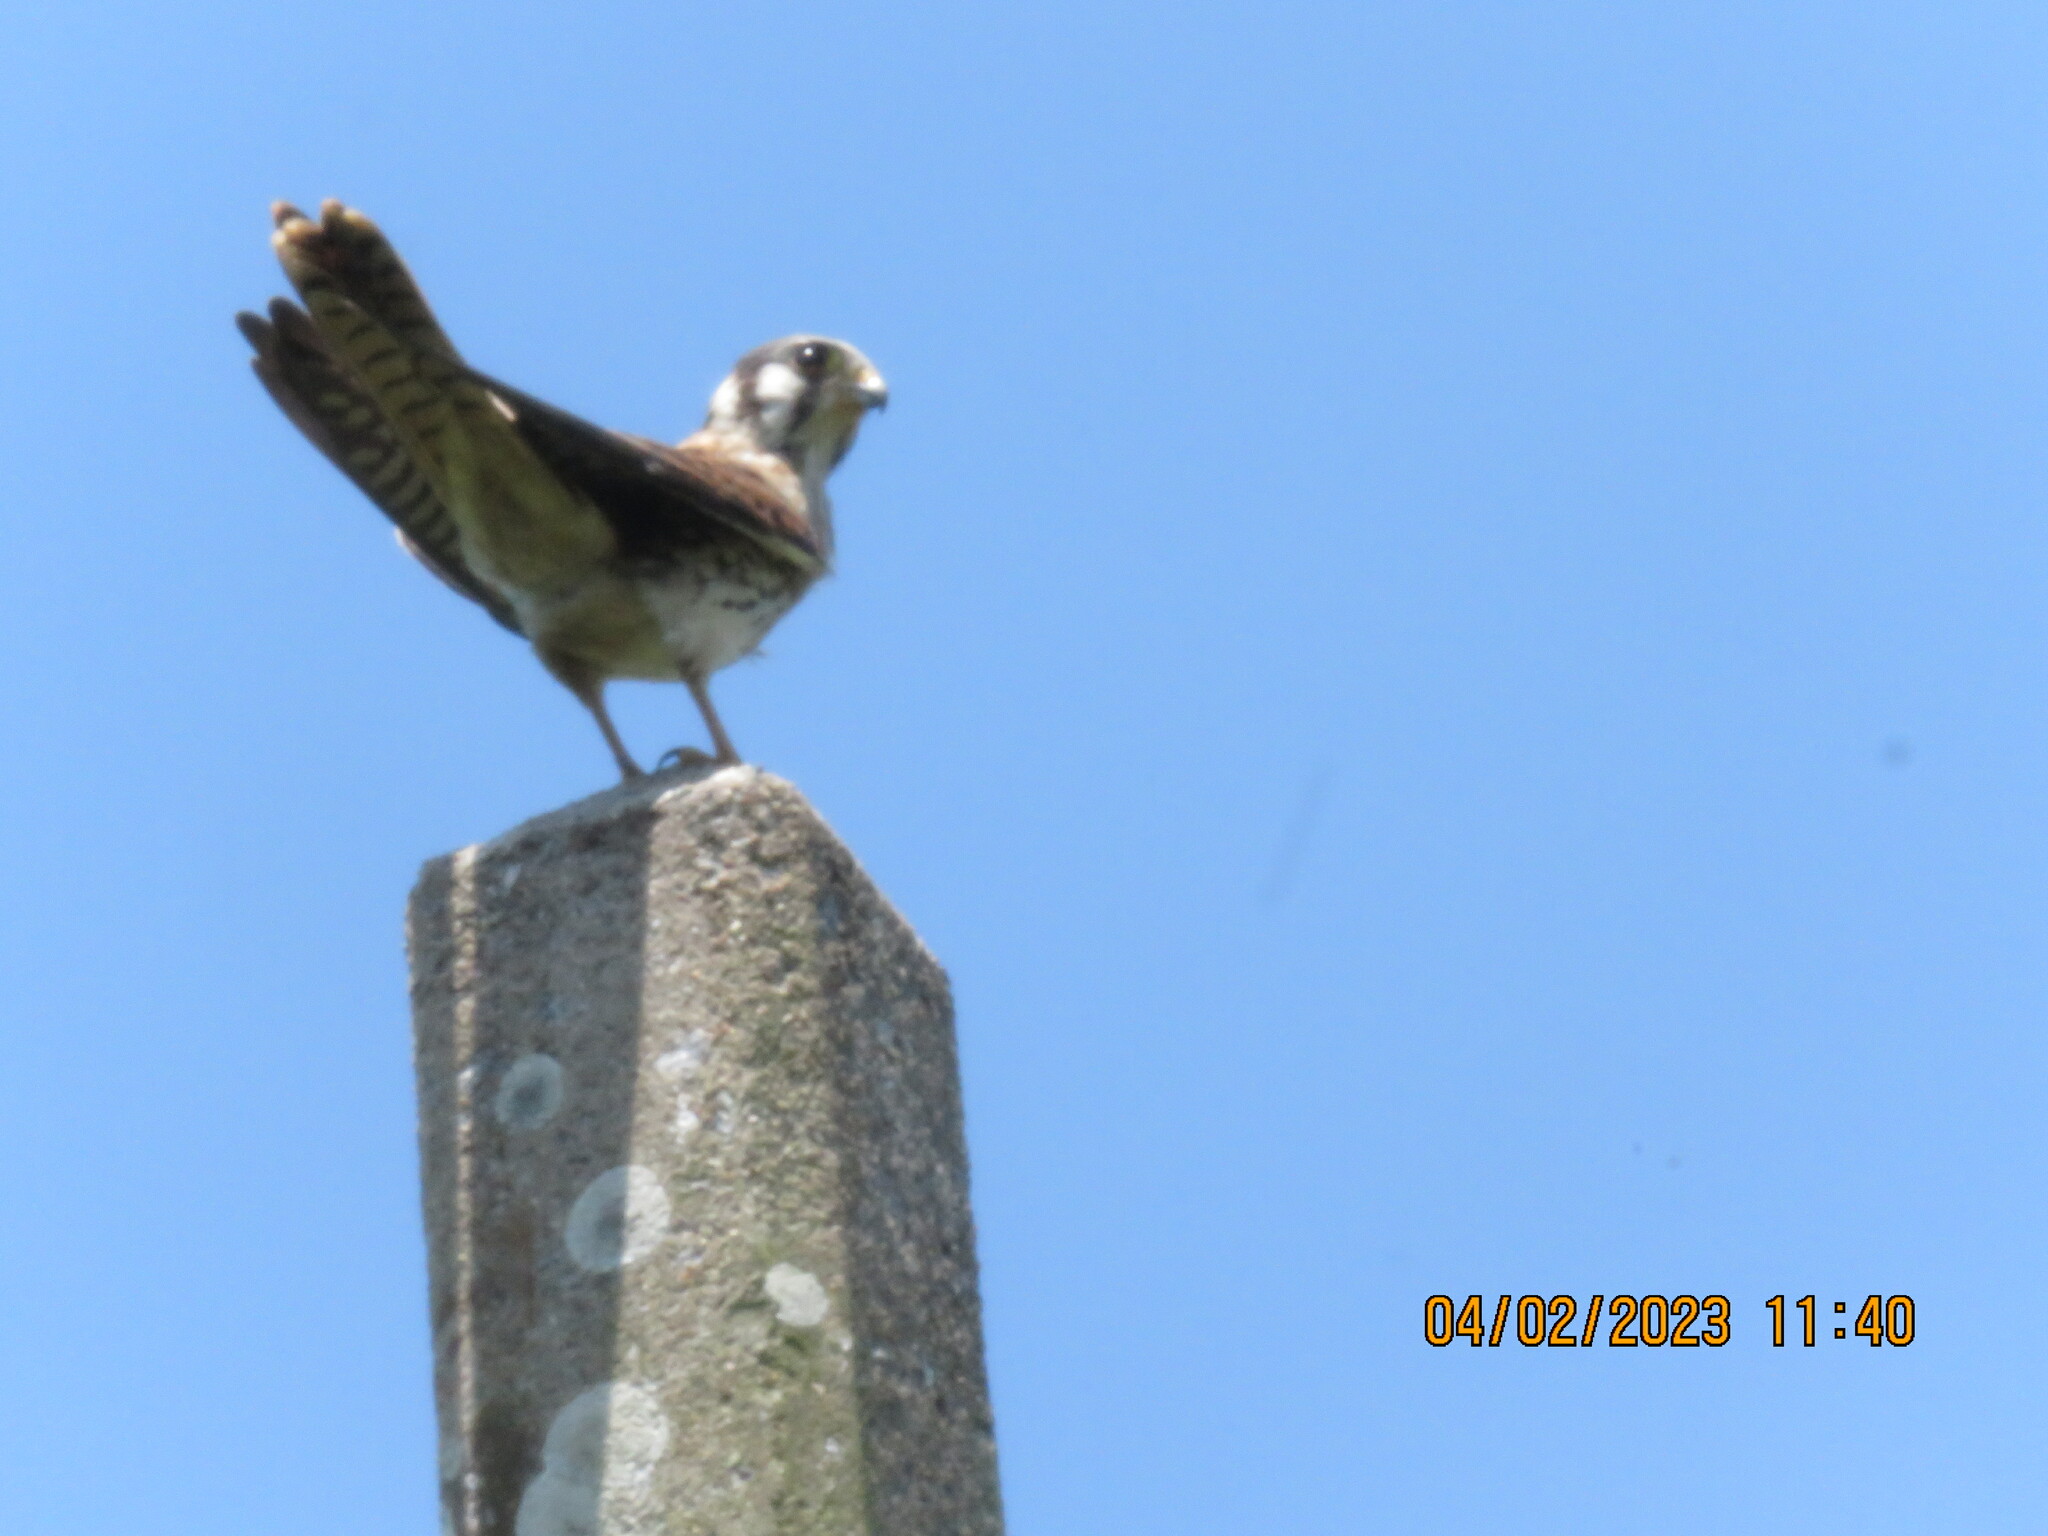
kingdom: Animalia
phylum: Chordata
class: Aves
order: Falconiformes
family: Falconidae
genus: Falco
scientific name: Falco sparverius
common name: American kestrel
